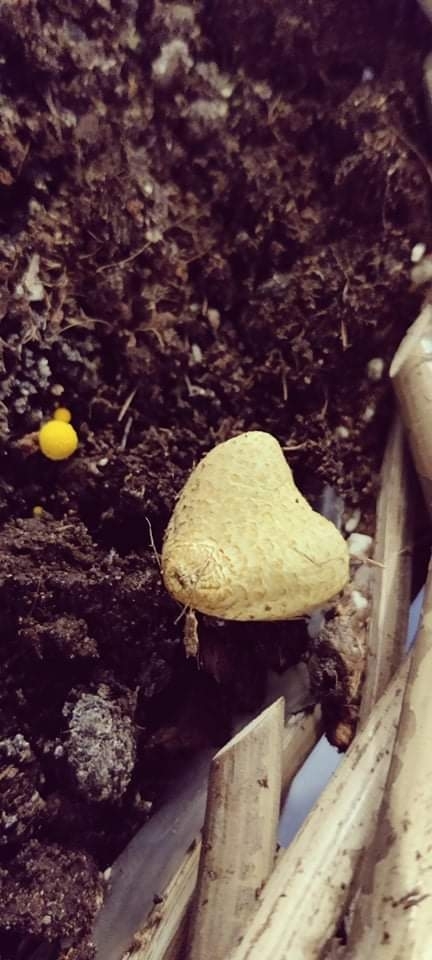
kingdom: Fungi
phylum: Basidiomycota
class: Agaricomycetes
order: Agaricales
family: Agaricaceae
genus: Leucocoprinus
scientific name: Leucocoprinus birnbaumii
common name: Plantpot dapperling
